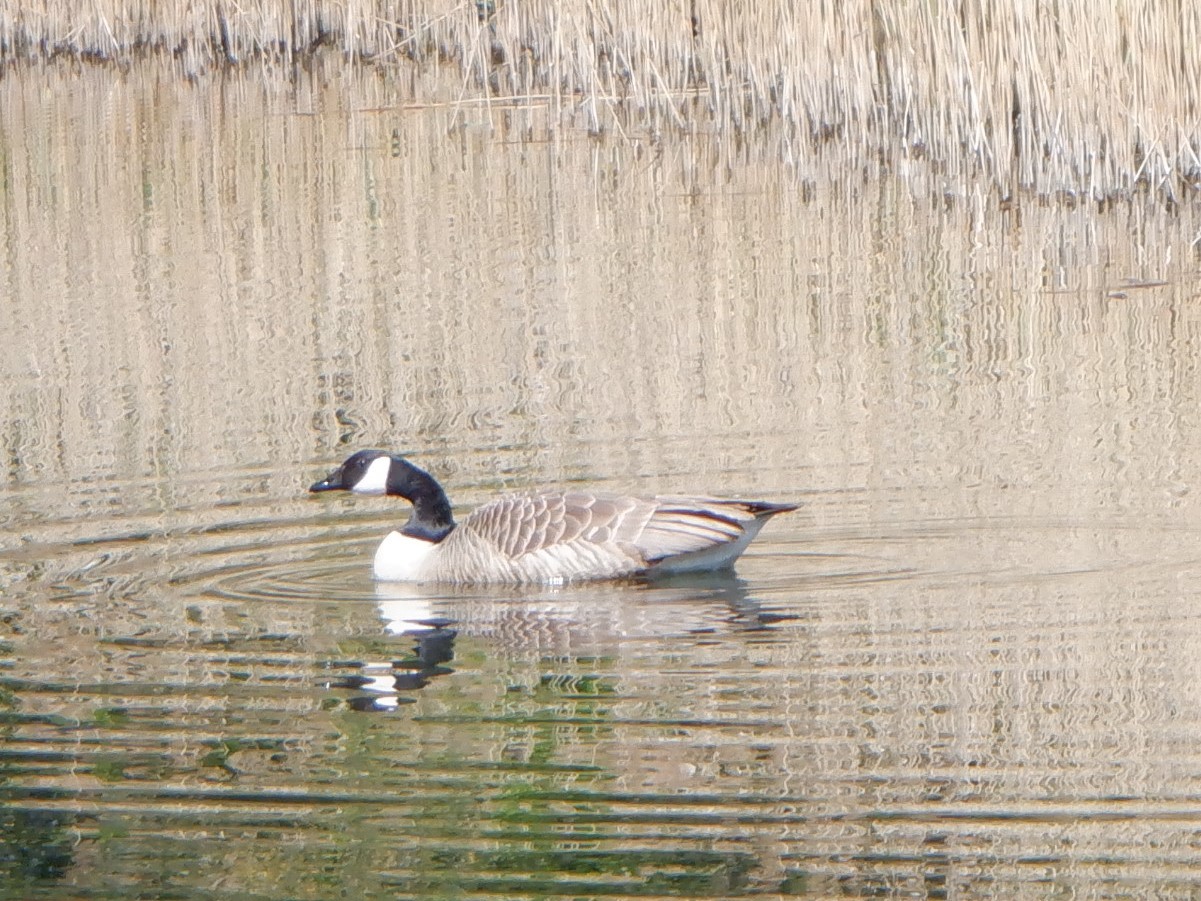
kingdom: Animalia
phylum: Chordata
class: Aves
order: Anseriformes
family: Anatidae
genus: Branta
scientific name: Branta canadensis
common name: Canada goose
